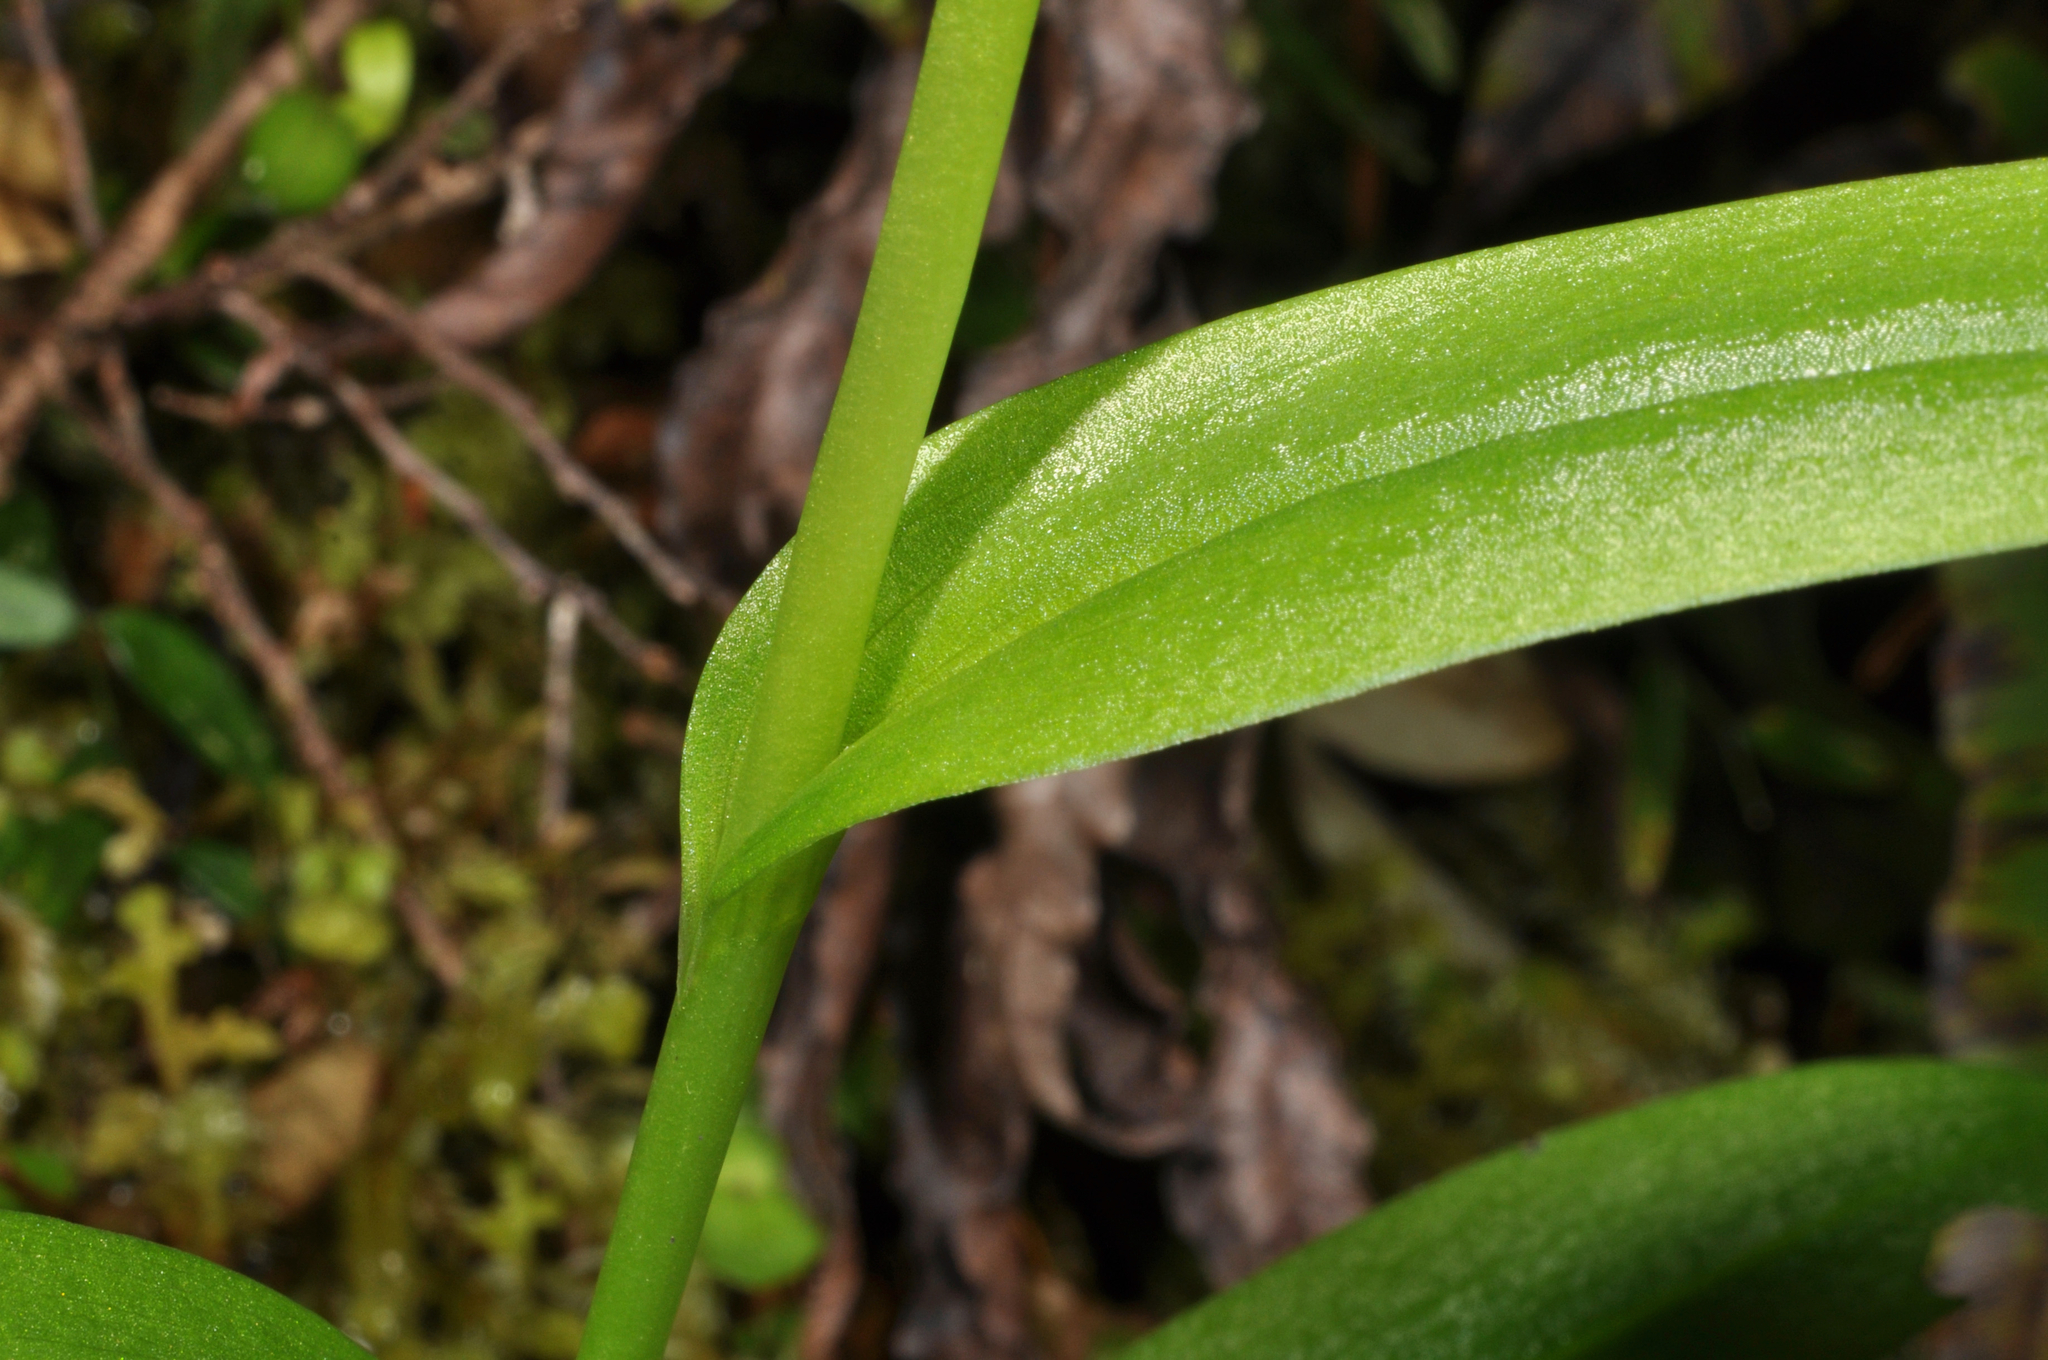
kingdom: Plantae
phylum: Tracheophyta
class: Liliopsida
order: Asparagales
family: Orchidaceae
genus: Pterostylis
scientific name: Pterostylis australis
